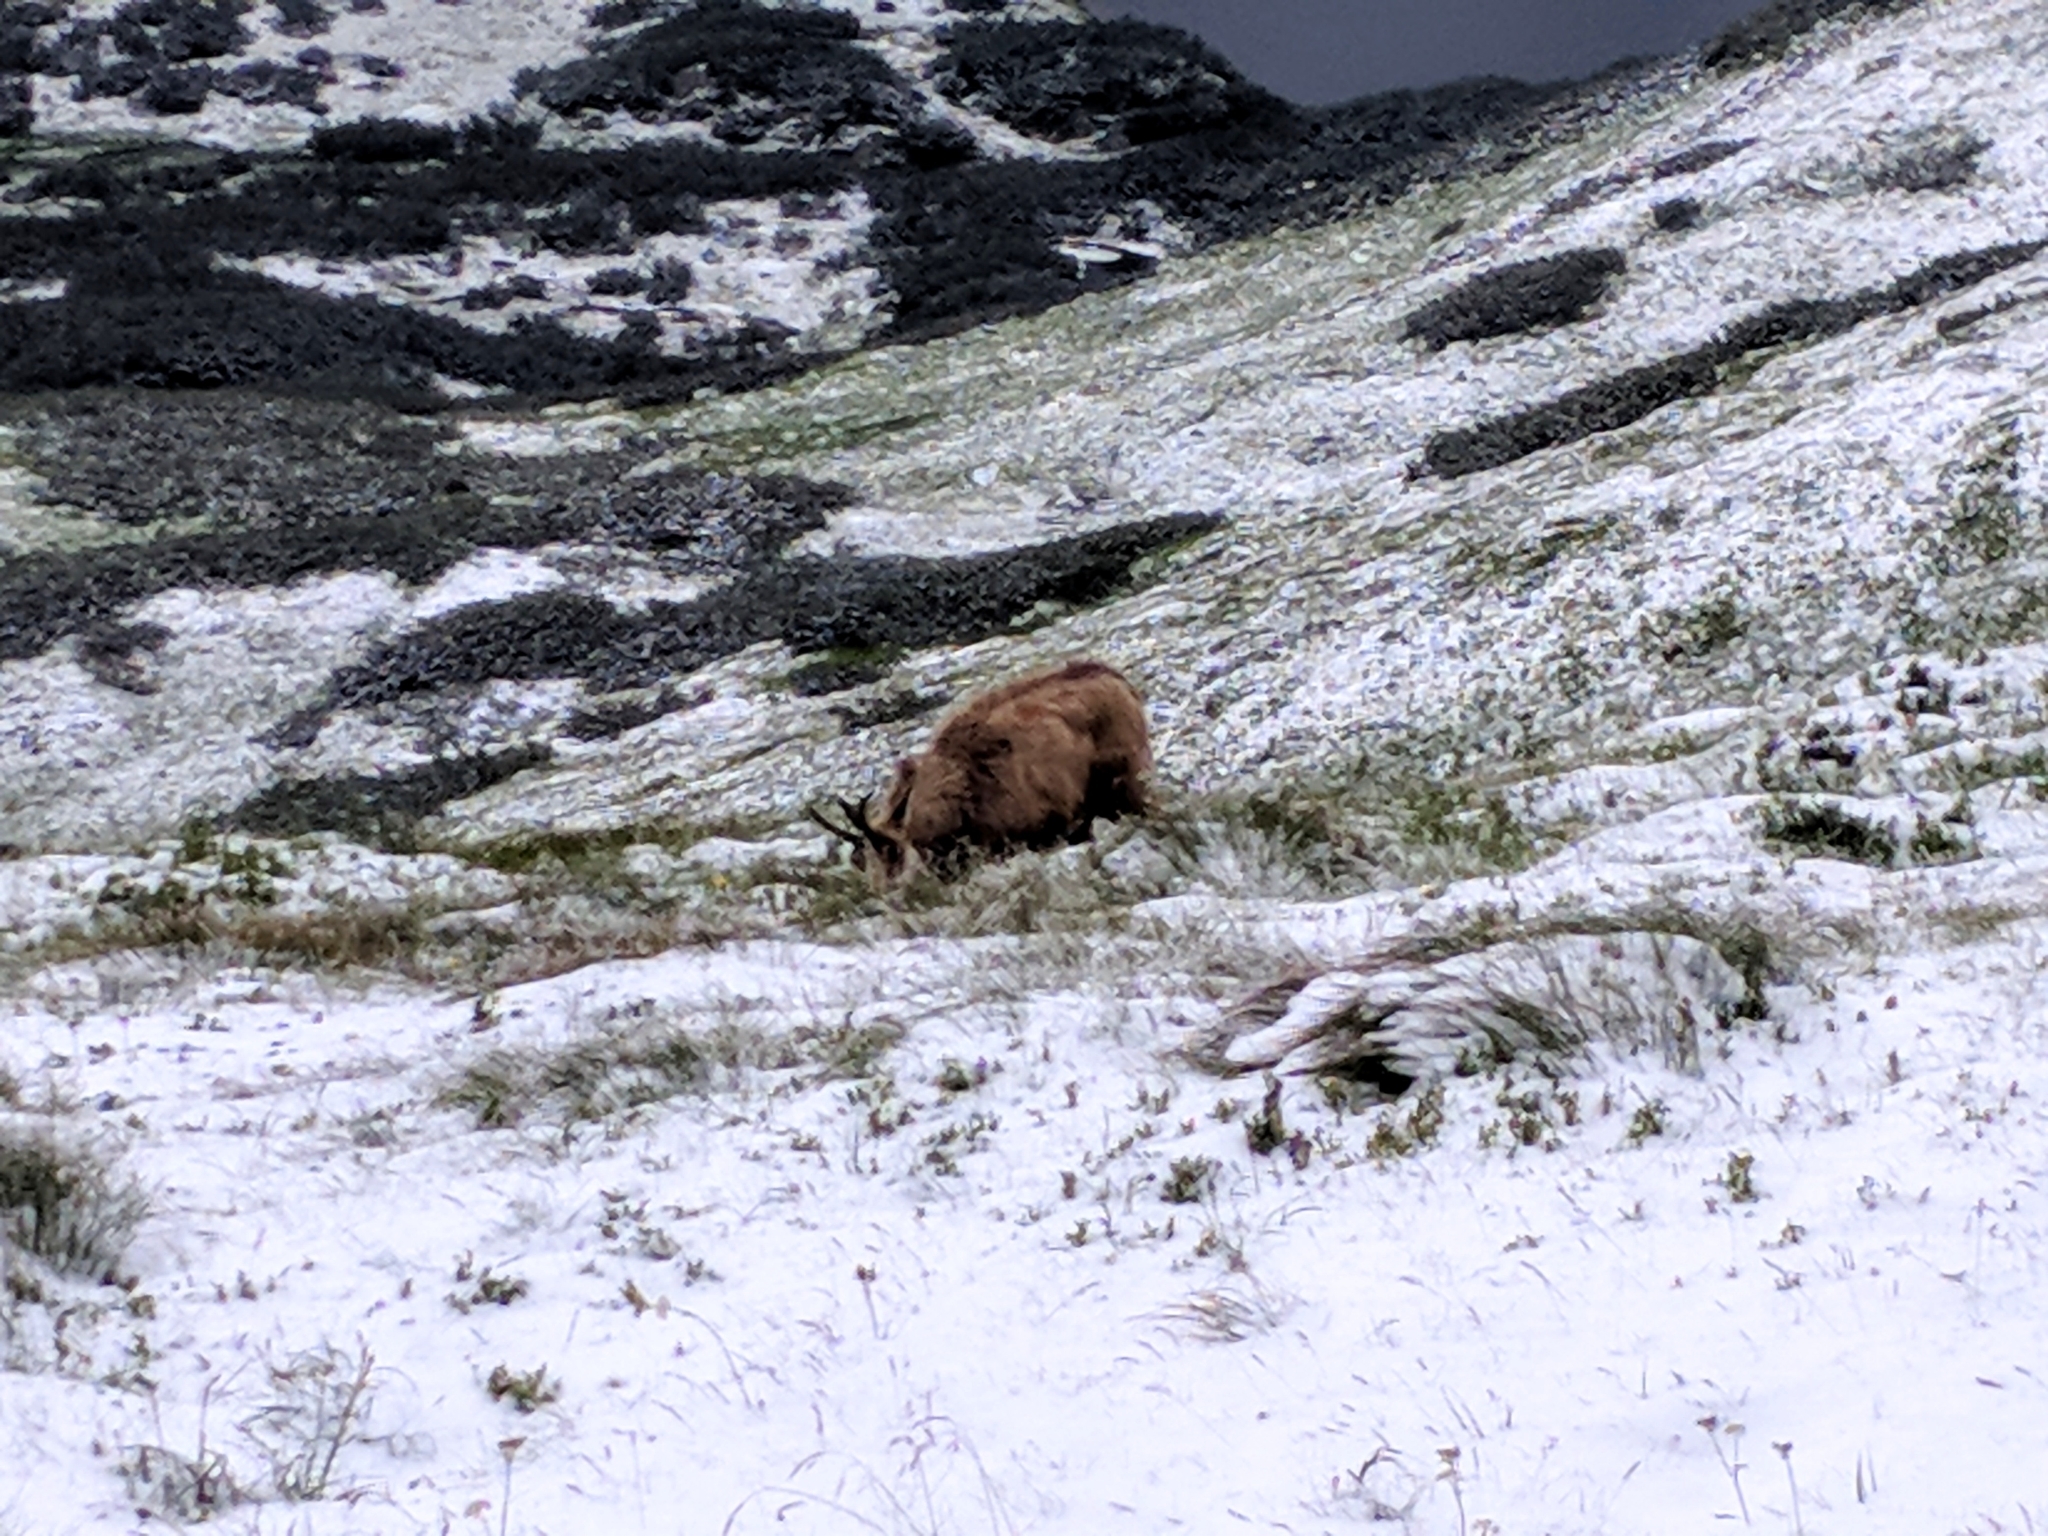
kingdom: Animalia
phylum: Chordata
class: Mammalia
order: Artiodactyla
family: Bovidae
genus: Rupicapra
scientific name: Rupicapra rupicapra
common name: Chamois
